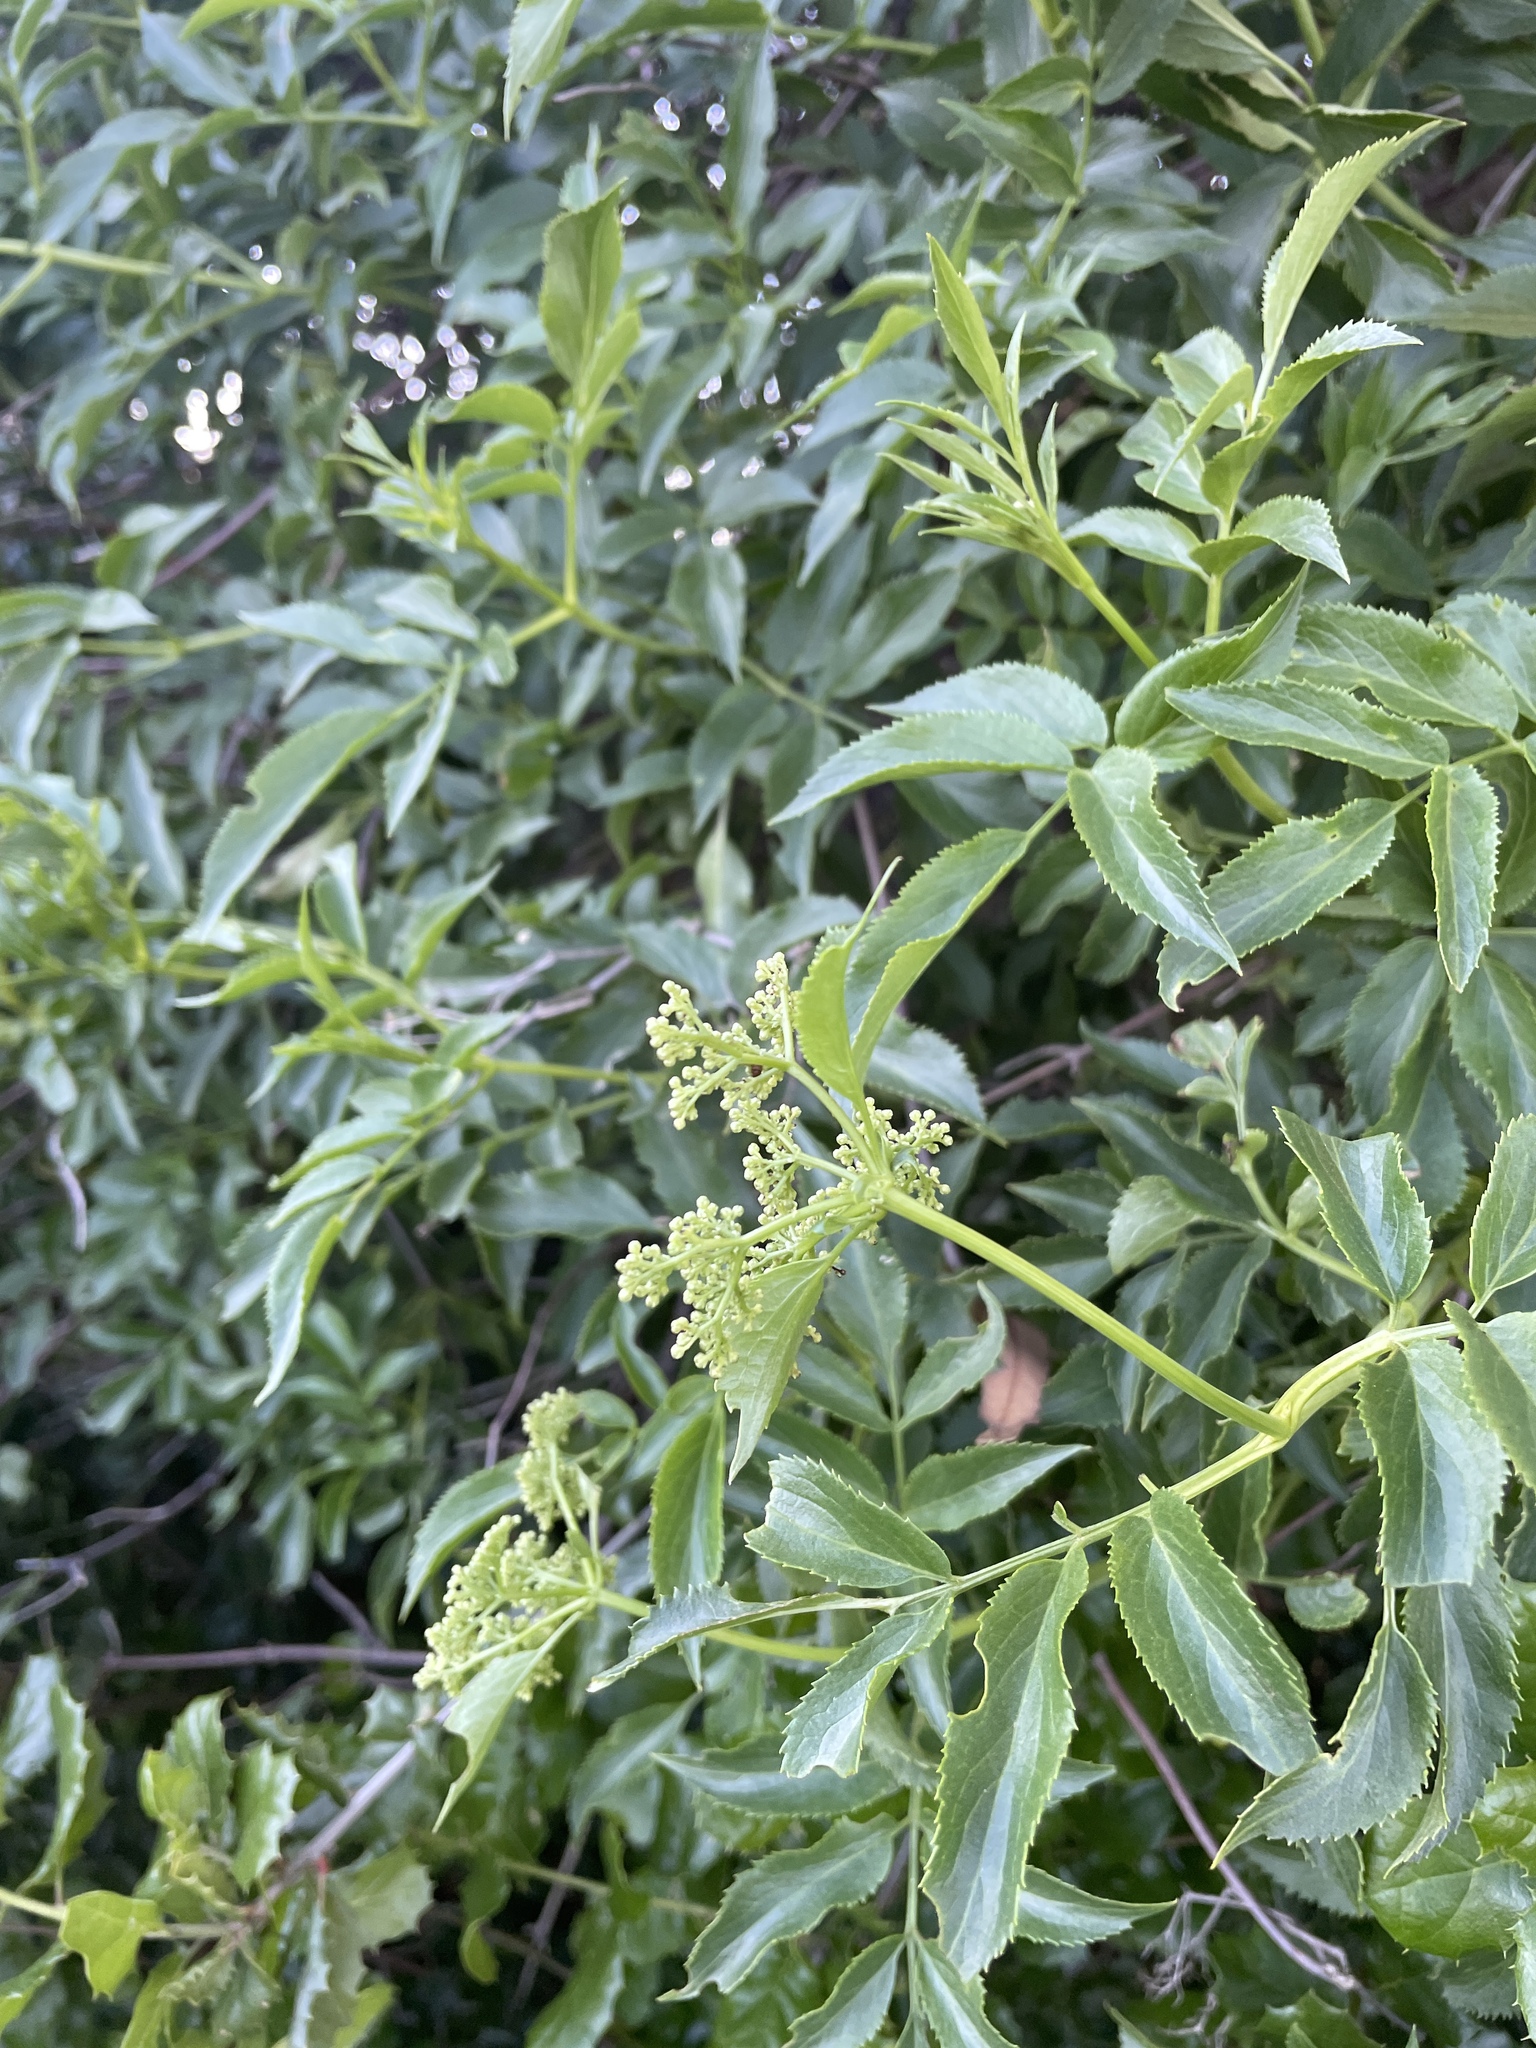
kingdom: Plantae
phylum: Tracheophyta
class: Magnoliopsida
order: Dipsacales
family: Viburnaceae
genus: Sambucus
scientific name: Sambucus cerulea
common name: Blue elder
